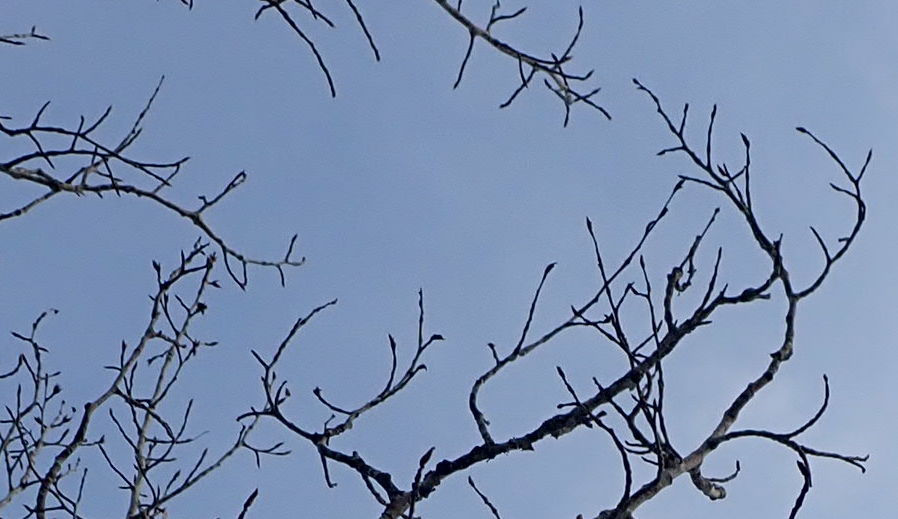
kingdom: Plantae
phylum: Tracheophyta
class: Magnoliopsida
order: Malpighiales
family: Salicaceae
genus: Populus
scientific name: Populus balsamifera
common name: Balsam poplar
